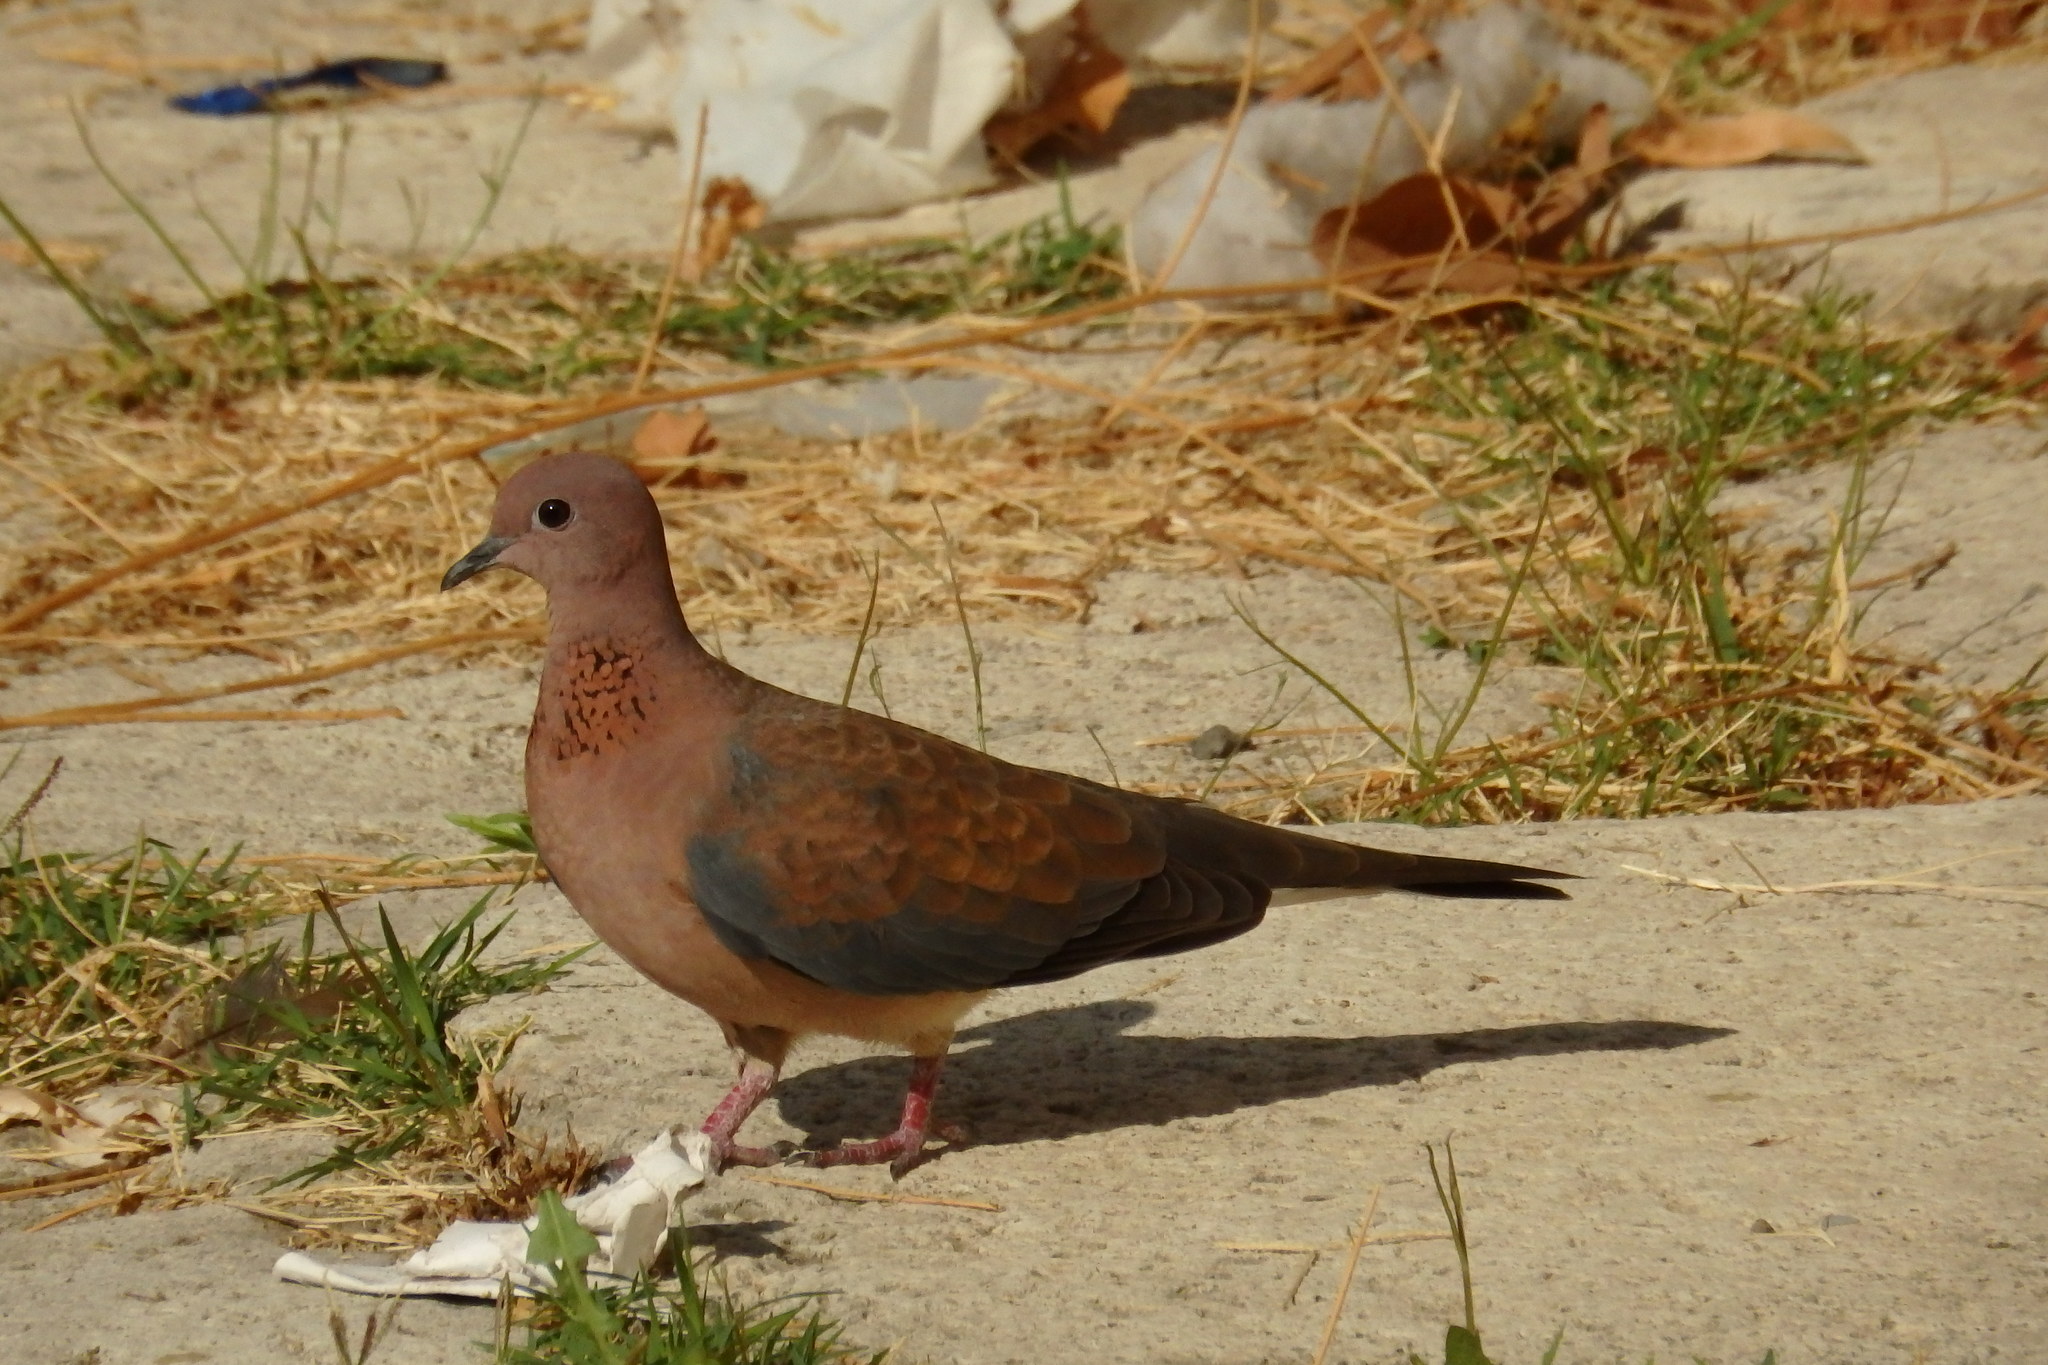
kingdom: Animalia
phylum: Chordata
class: Aves
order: Columbiformes
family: Columbidae
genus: Spilopelia
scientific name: Spilopelia senegalensis
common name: Laughing dove
